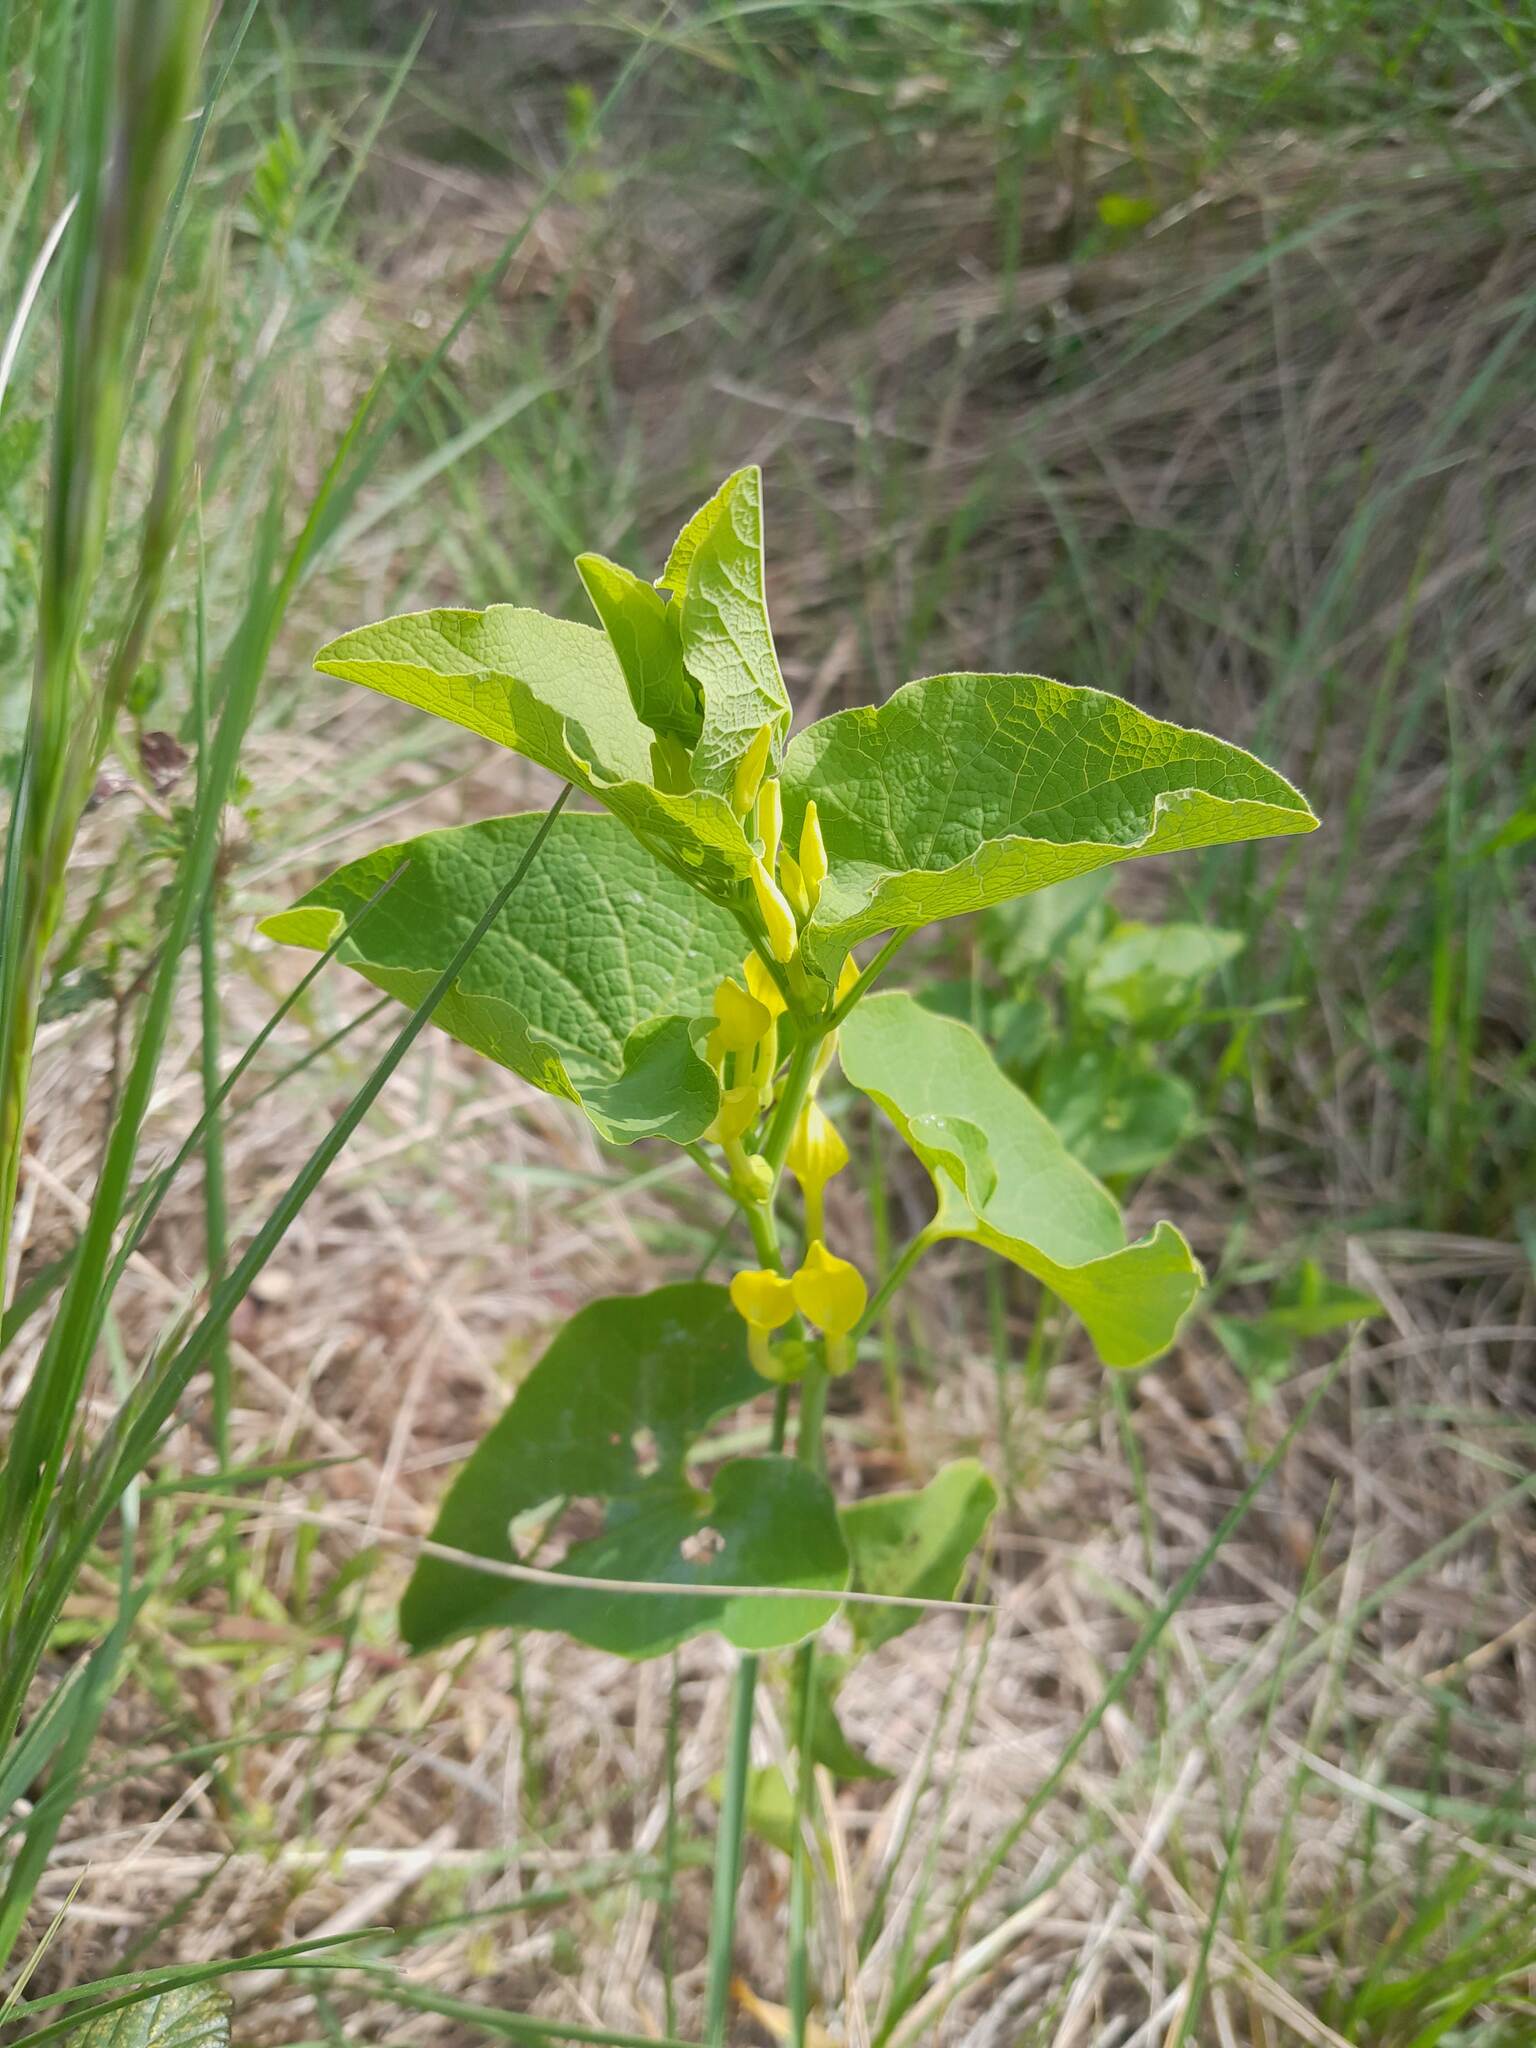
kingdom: Plantae
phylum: Tracheophyta
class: Magnoliopsida
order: Piperales
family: Aristolochiaceae
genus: Aristolochia
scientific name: Aristolochia clematitis
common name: Birthwort
